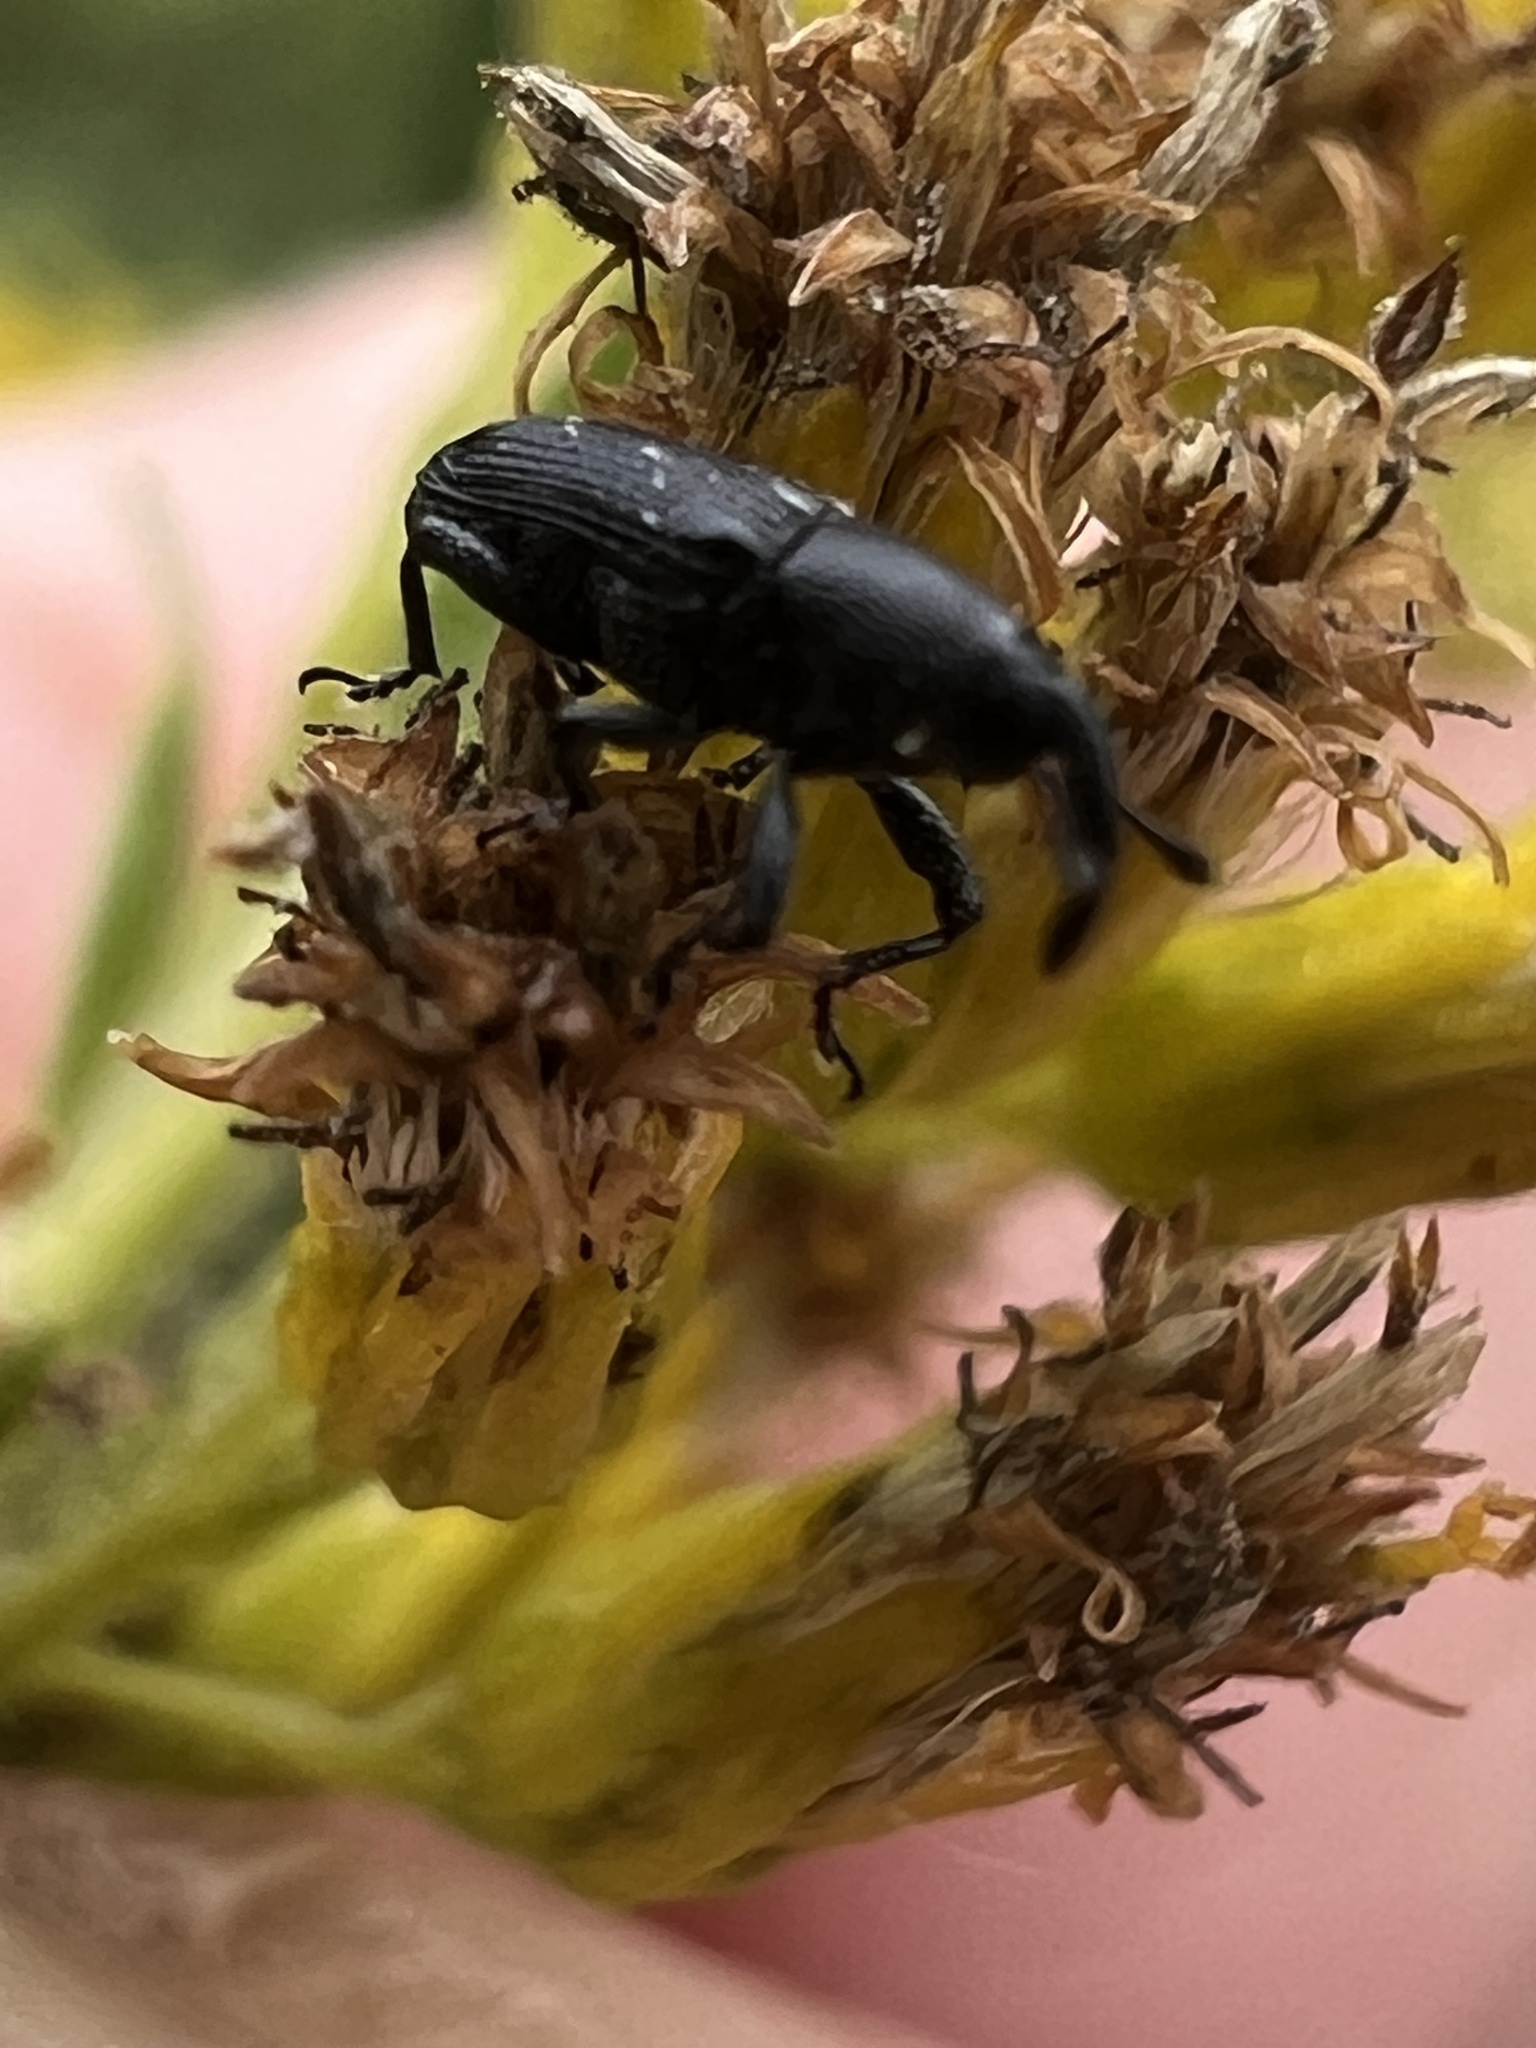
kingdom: Animalia
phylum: Arthropoda
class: Insecta
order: Coleoptera
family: Curculionidae
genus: Pseudobaris
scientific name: Pseudobaris nigrina
